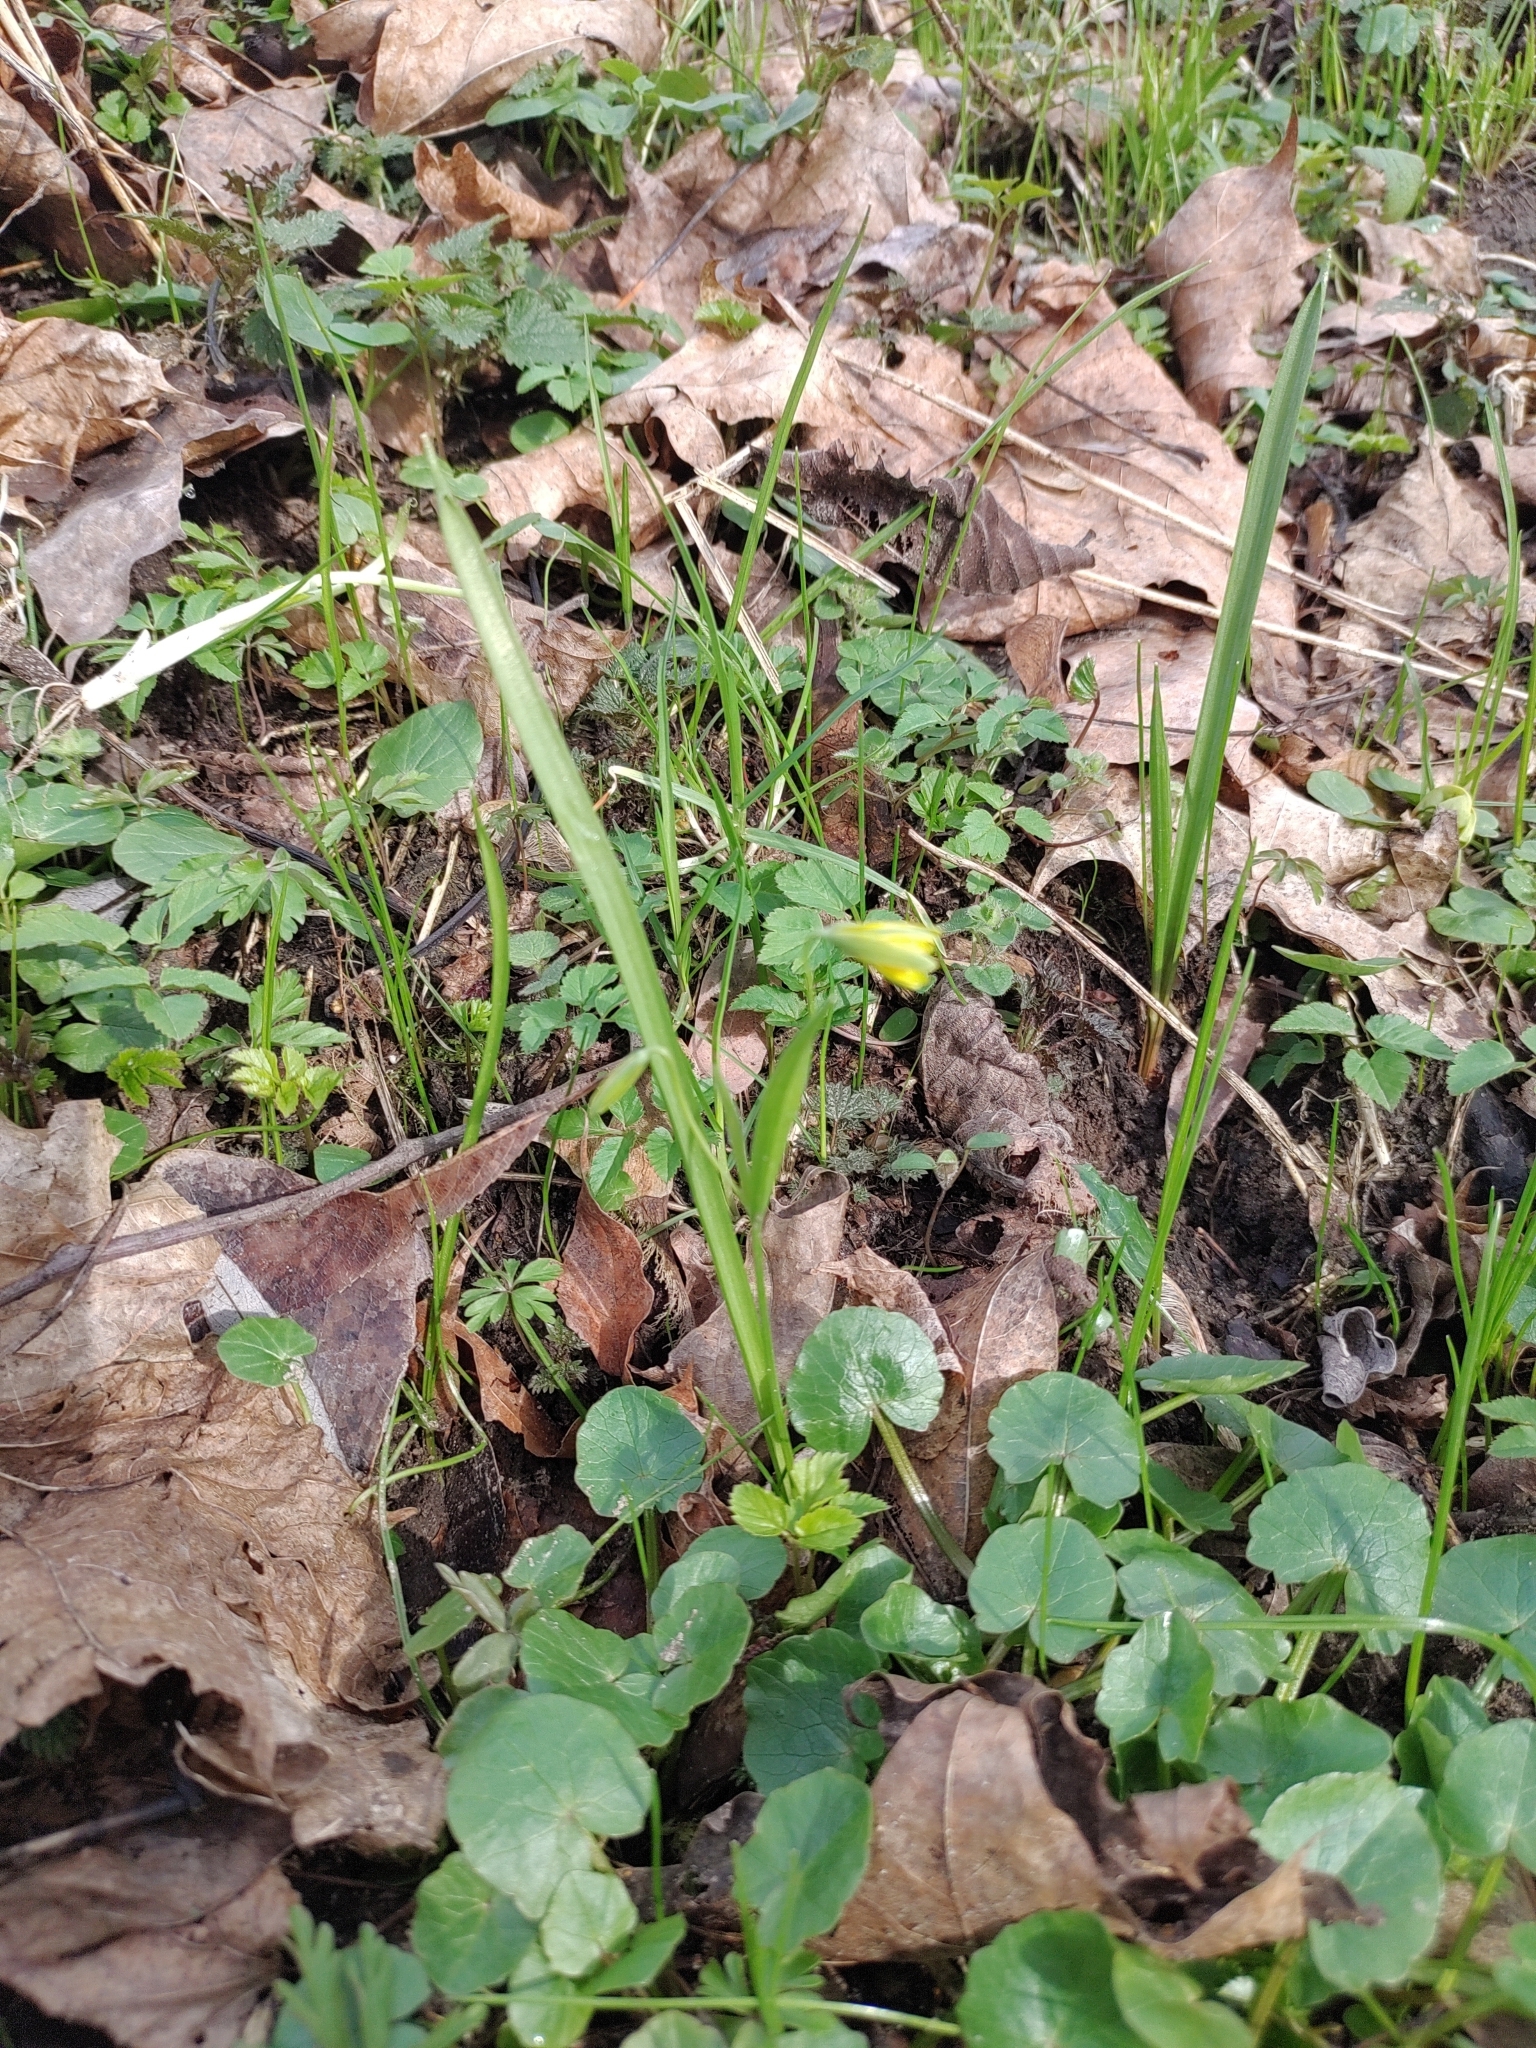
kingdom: Plantae
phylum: Tracheophyta
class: Liliopsida
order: Liliales
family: Liliaceae
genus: Gagea
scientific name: Gagea lutea
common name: Yellow star-of-bethlehem
